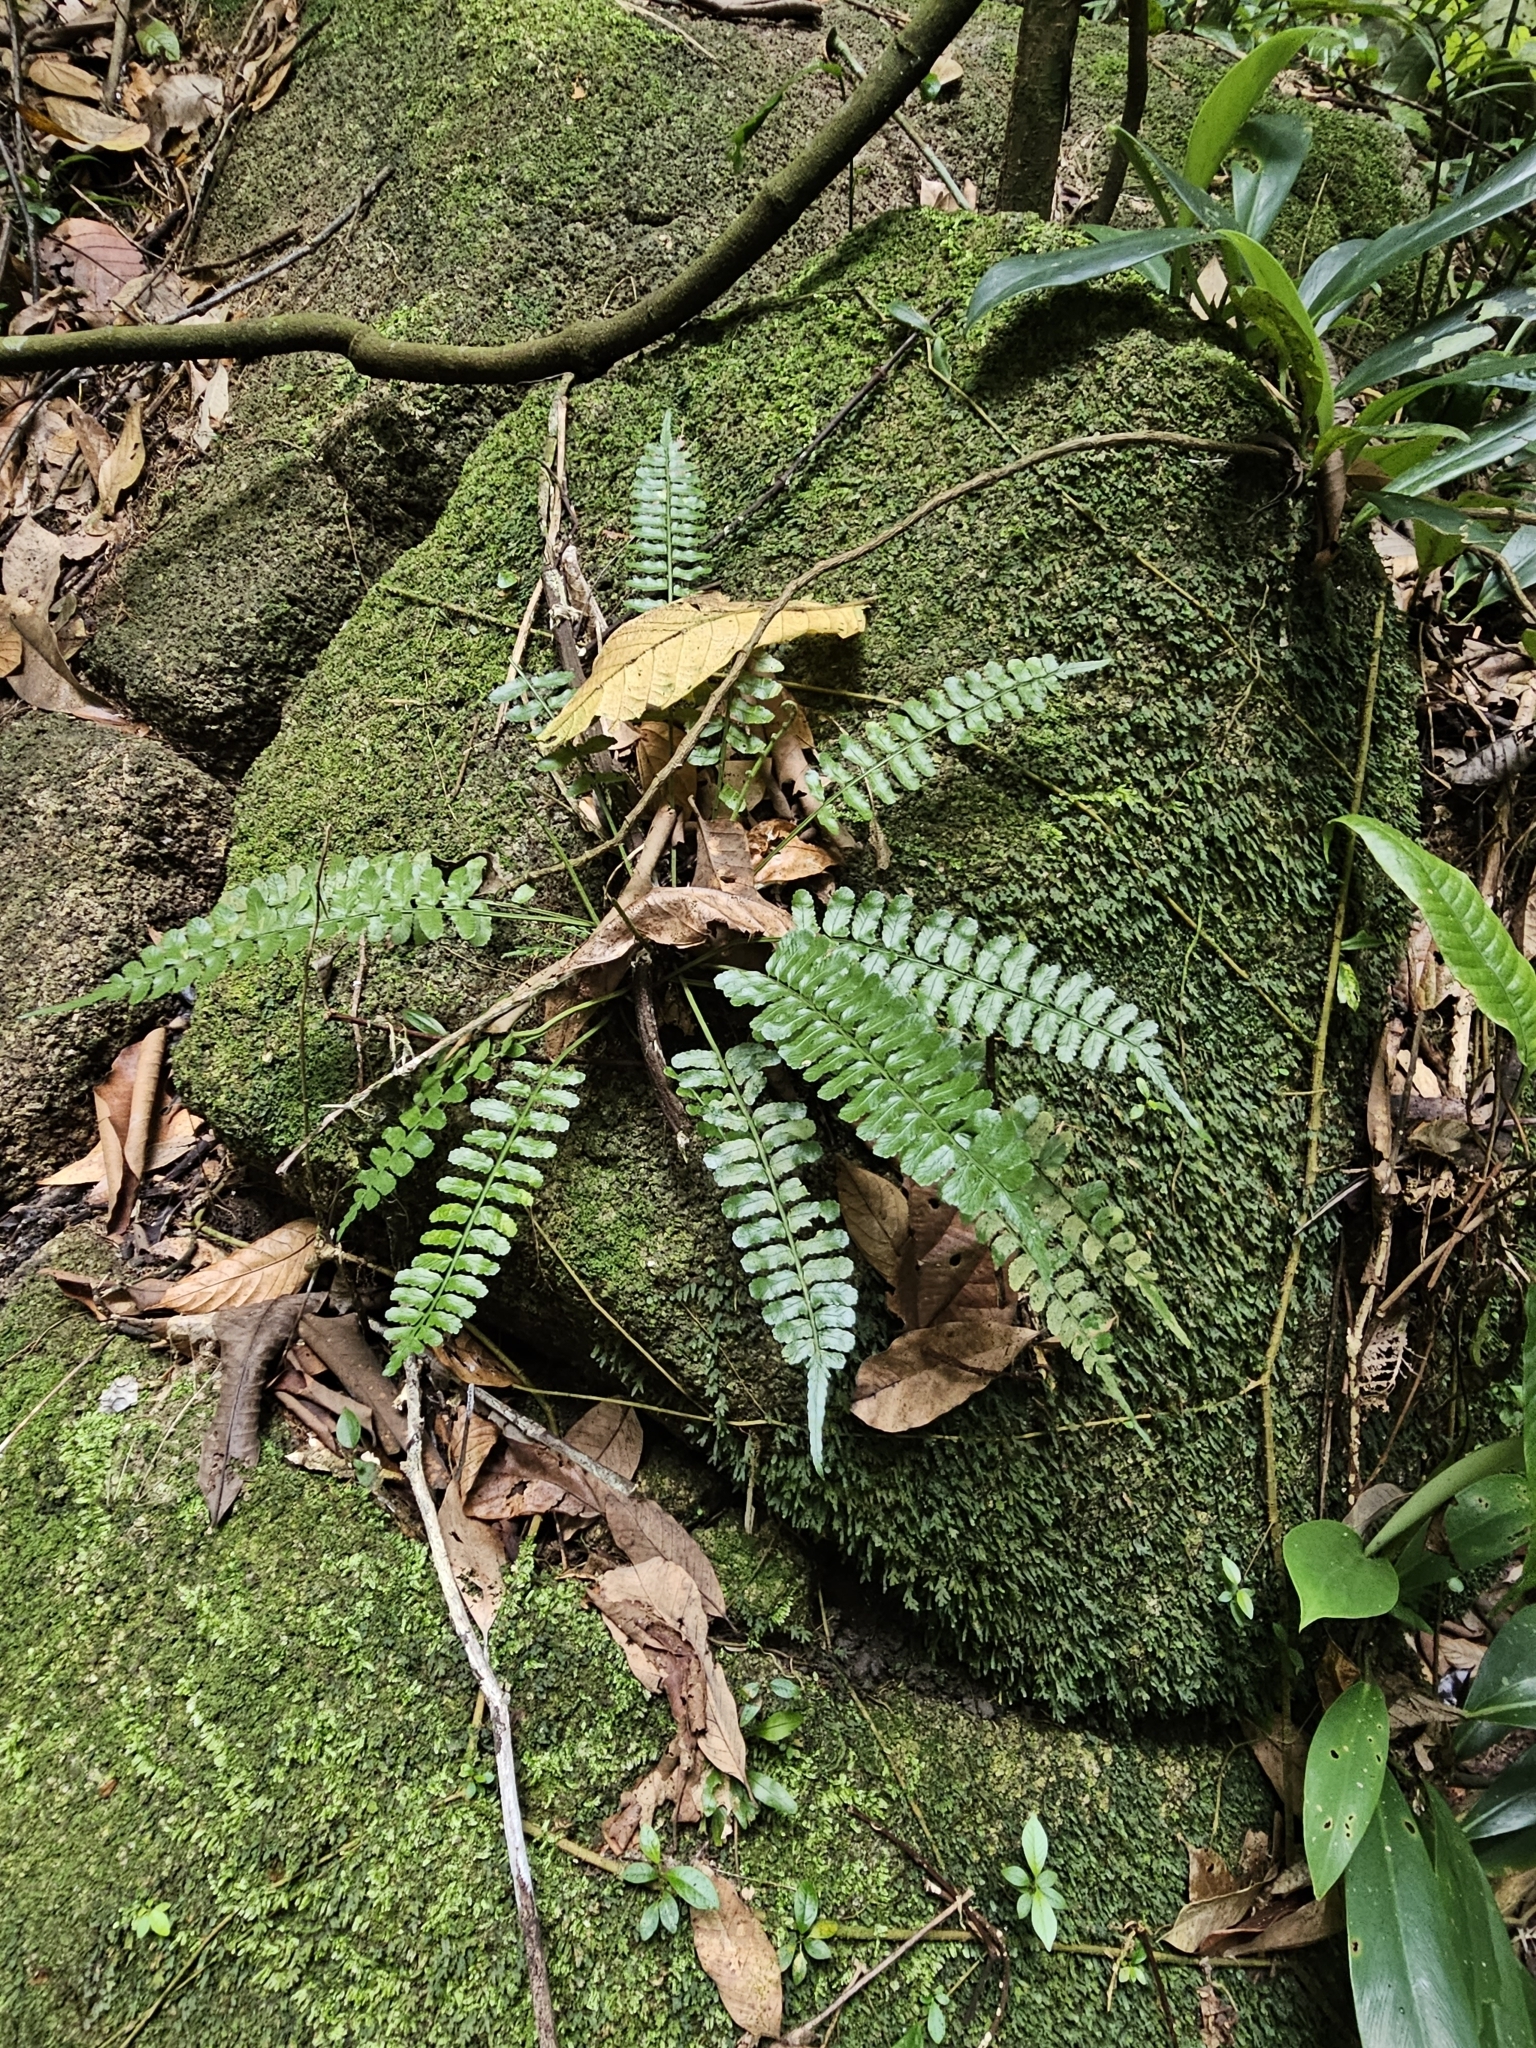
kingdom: Plantae
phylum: Tracheophyta
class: Polypodiopsida
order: Polypodiales
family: Aspleniaceae
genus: Asplenium
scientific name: Asplenium tenerum
